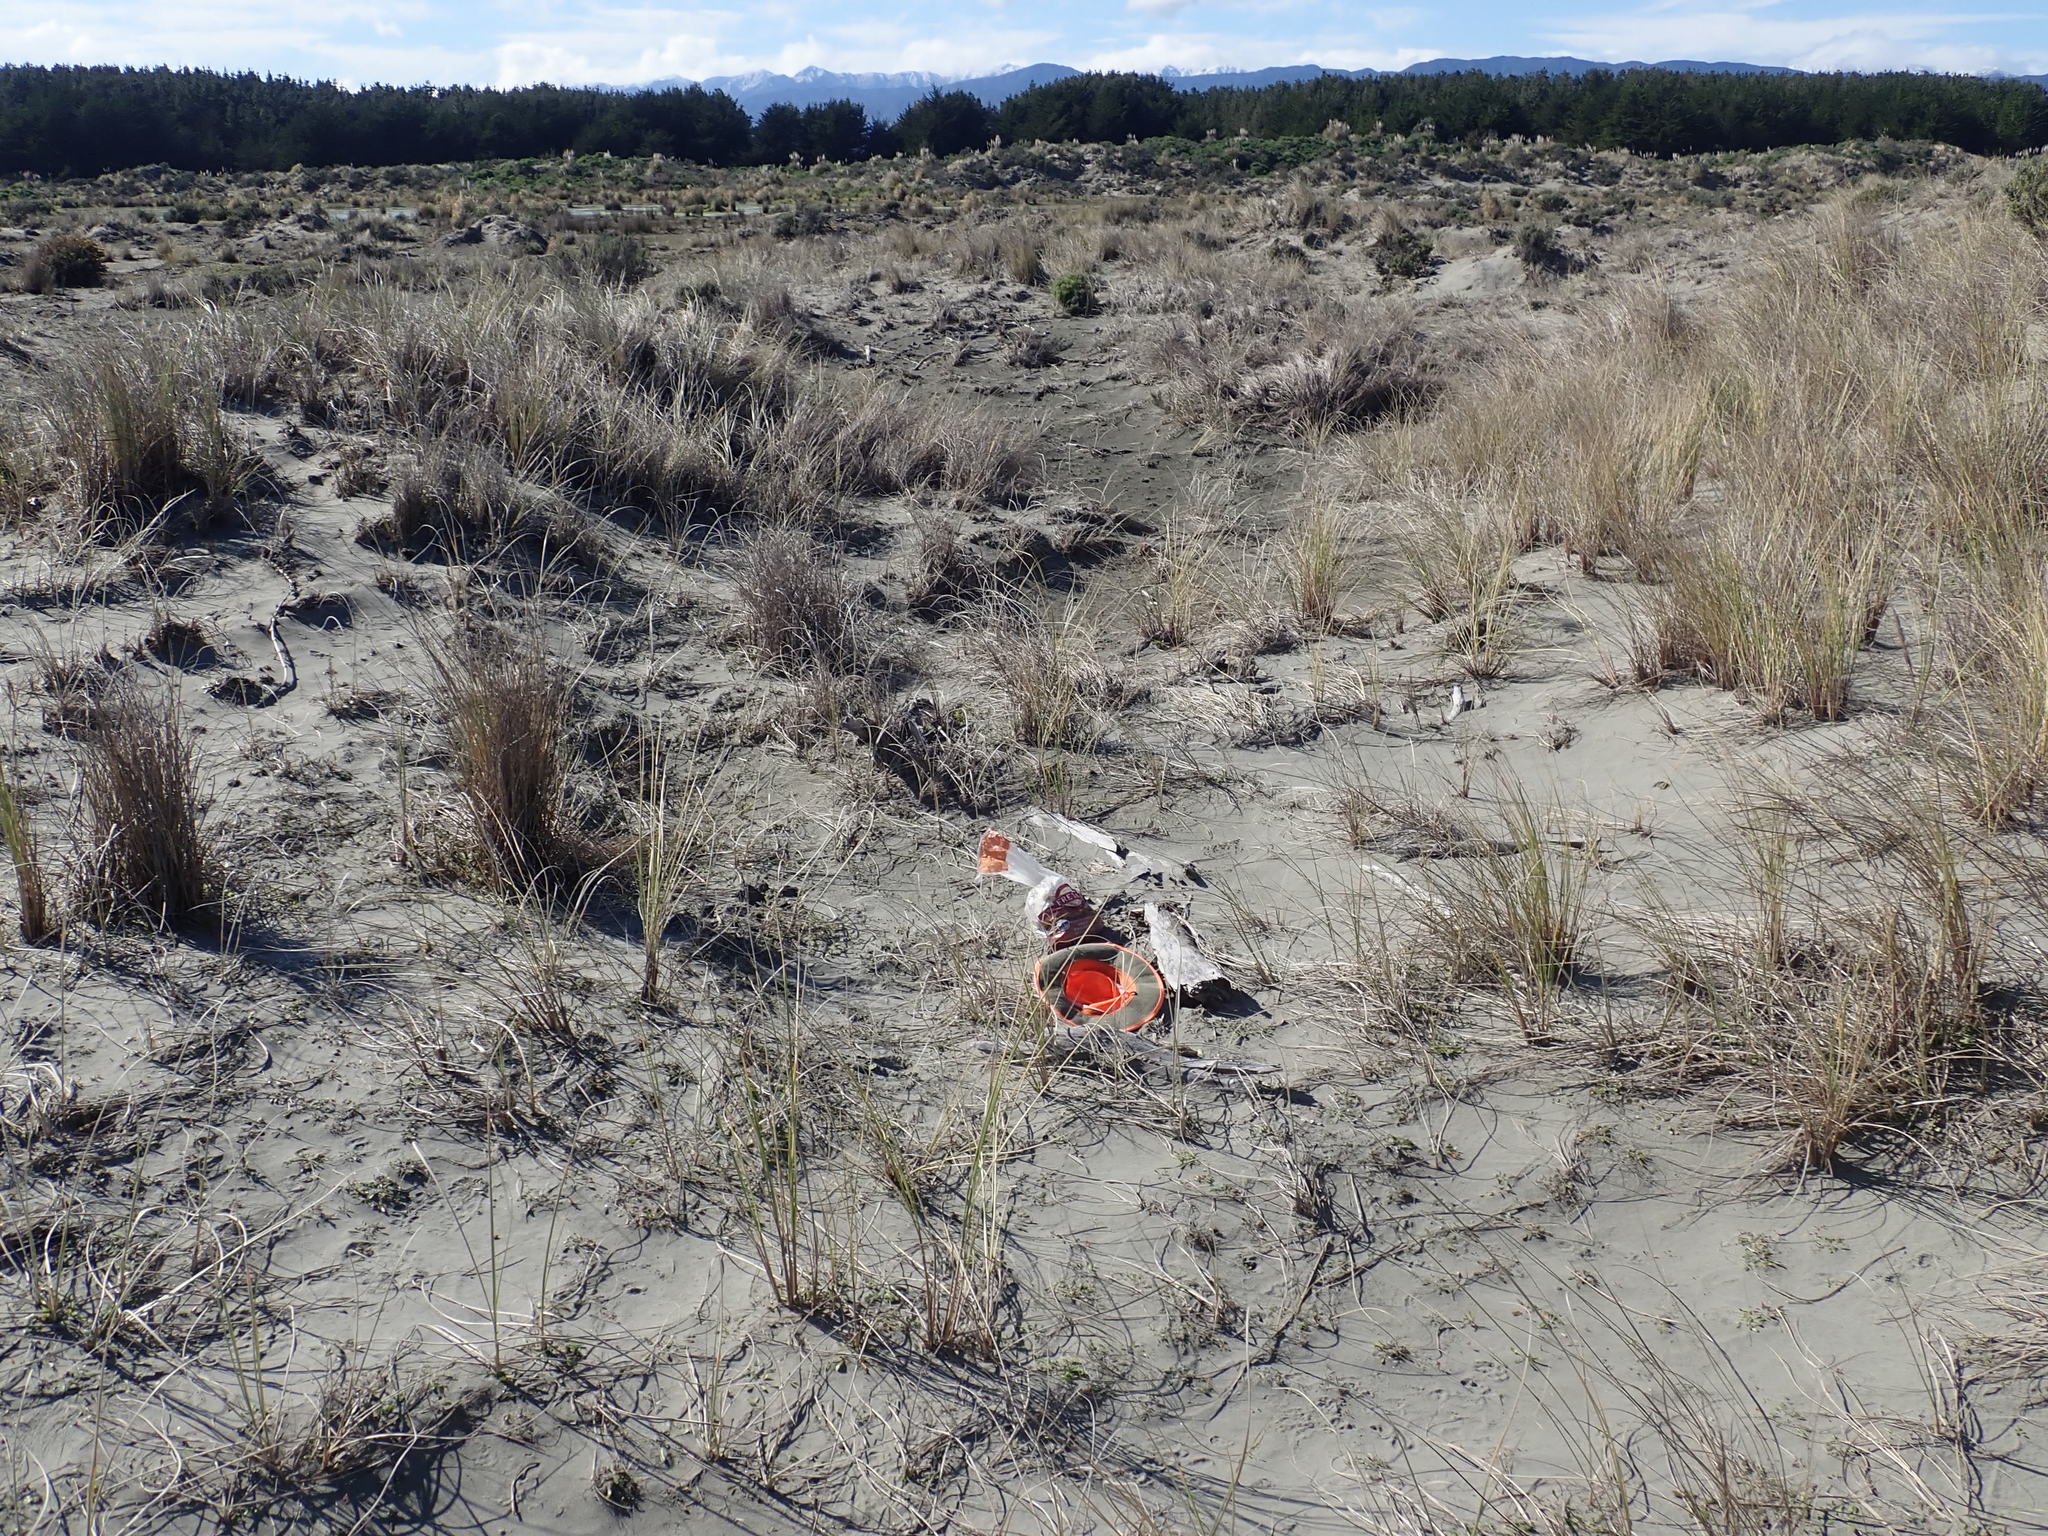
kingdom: Animalia
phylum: Arthropoda
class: Arachnida
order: Araneae
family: Theridiidae
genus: Latrodectus
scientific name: Latrodectus katipo
